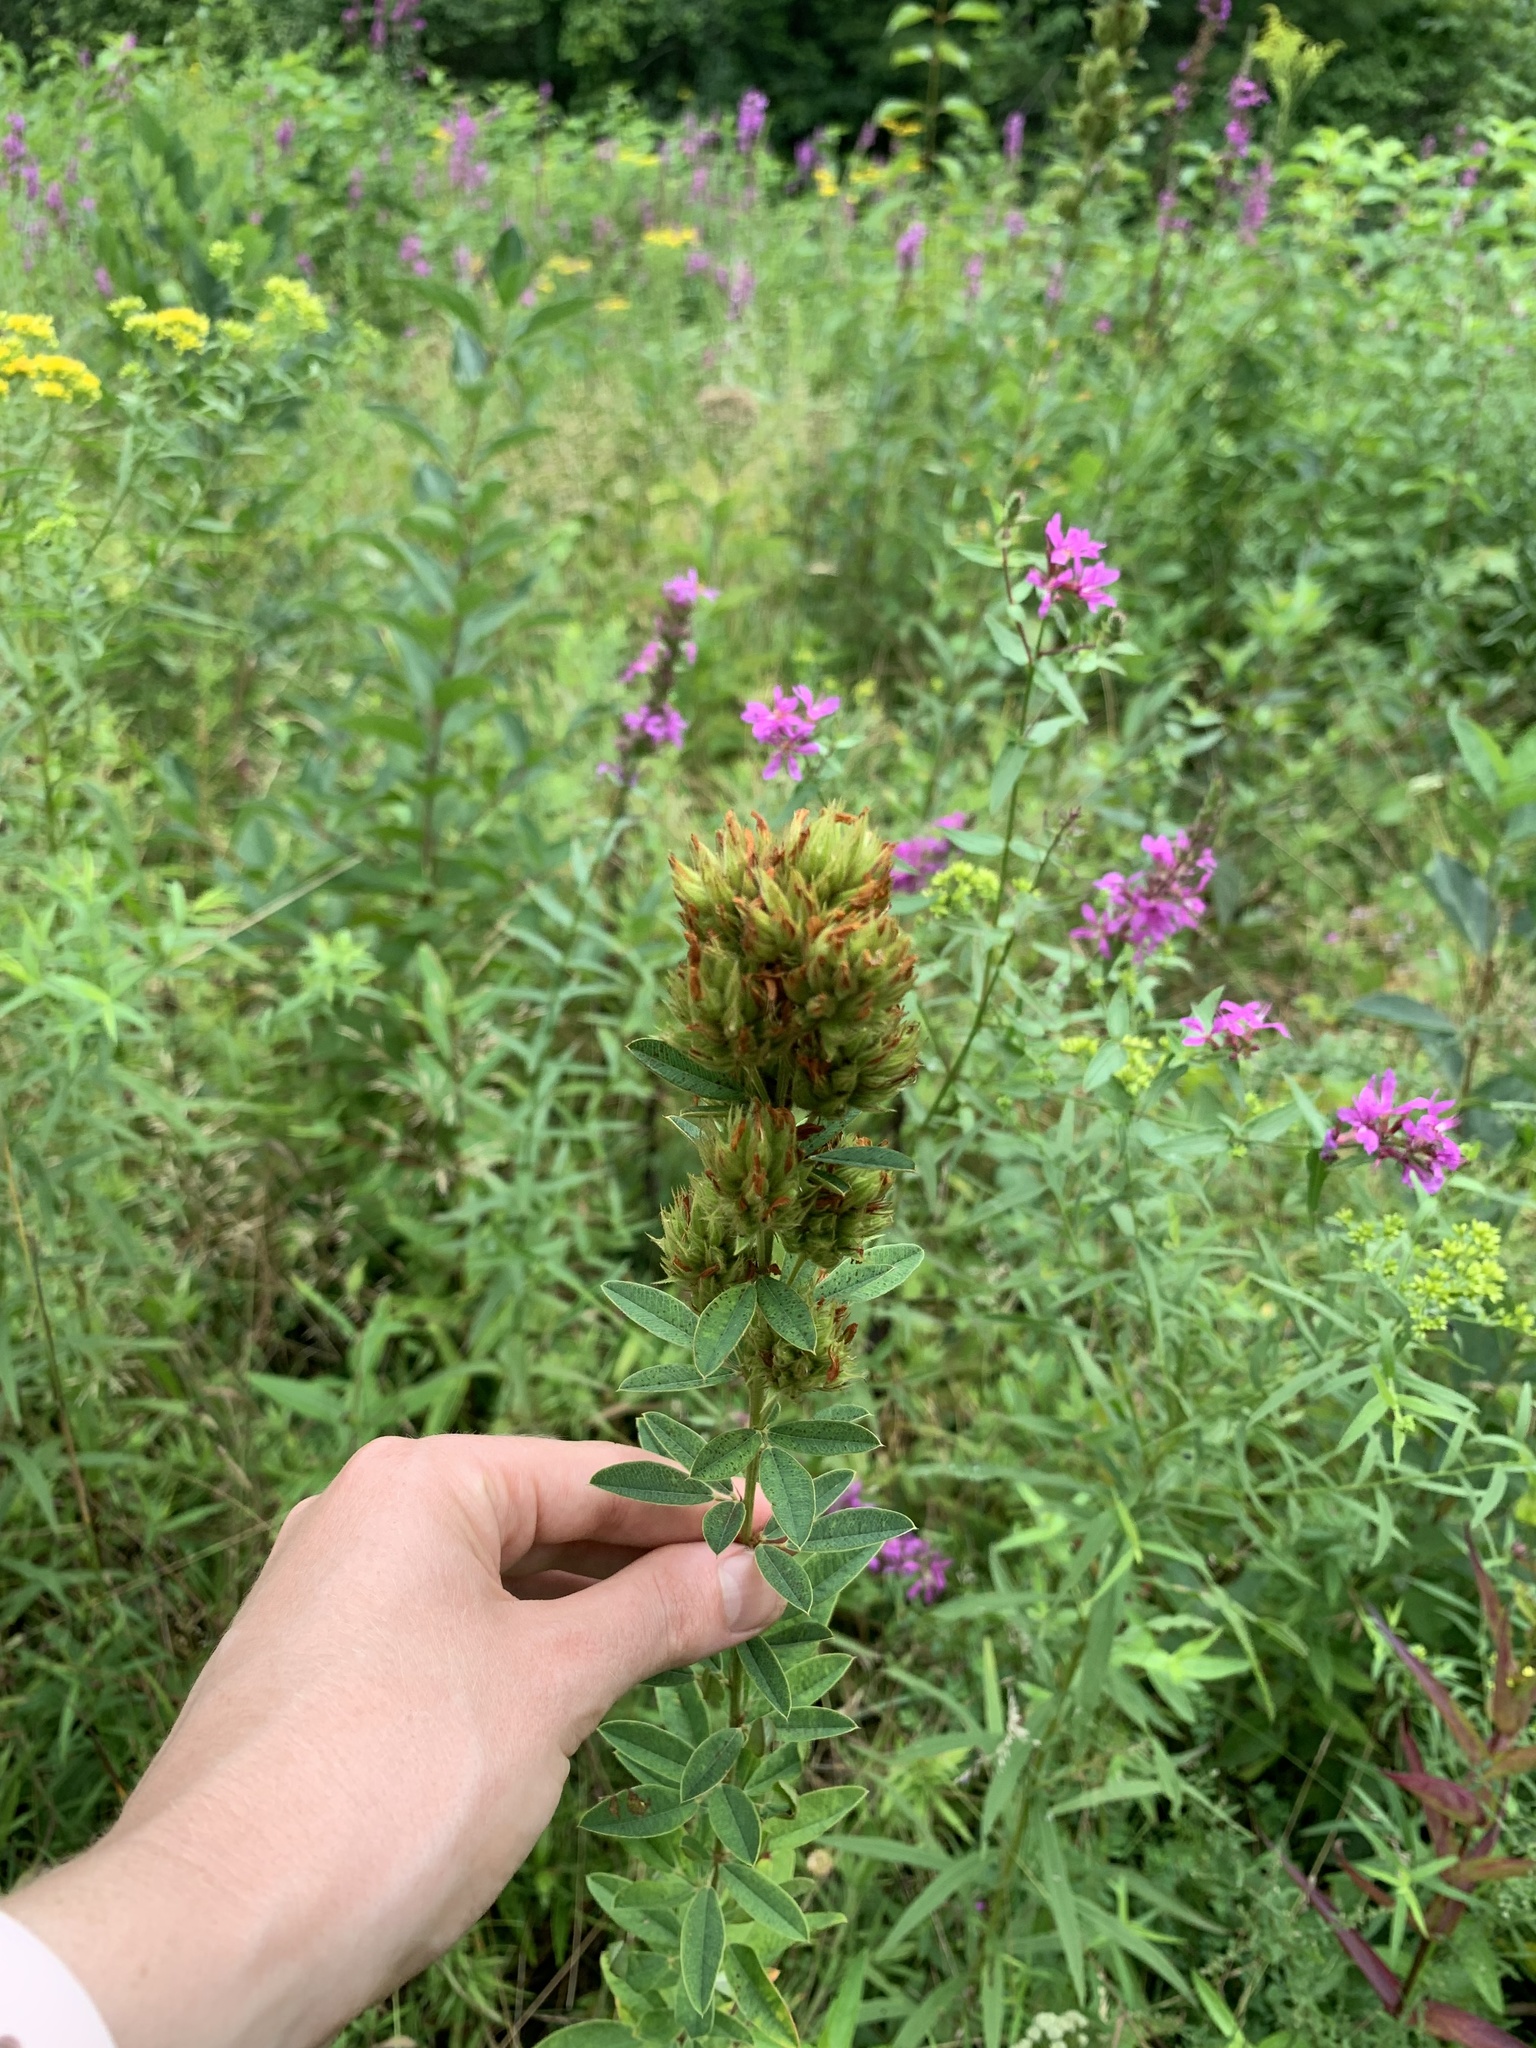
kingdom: Plantae
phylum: Tracheophyta
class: Magnoliopsida
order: Fabales
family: Fabaceae
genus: Lespedeza
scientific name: Lespedeza capitata
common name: Dusty clover
